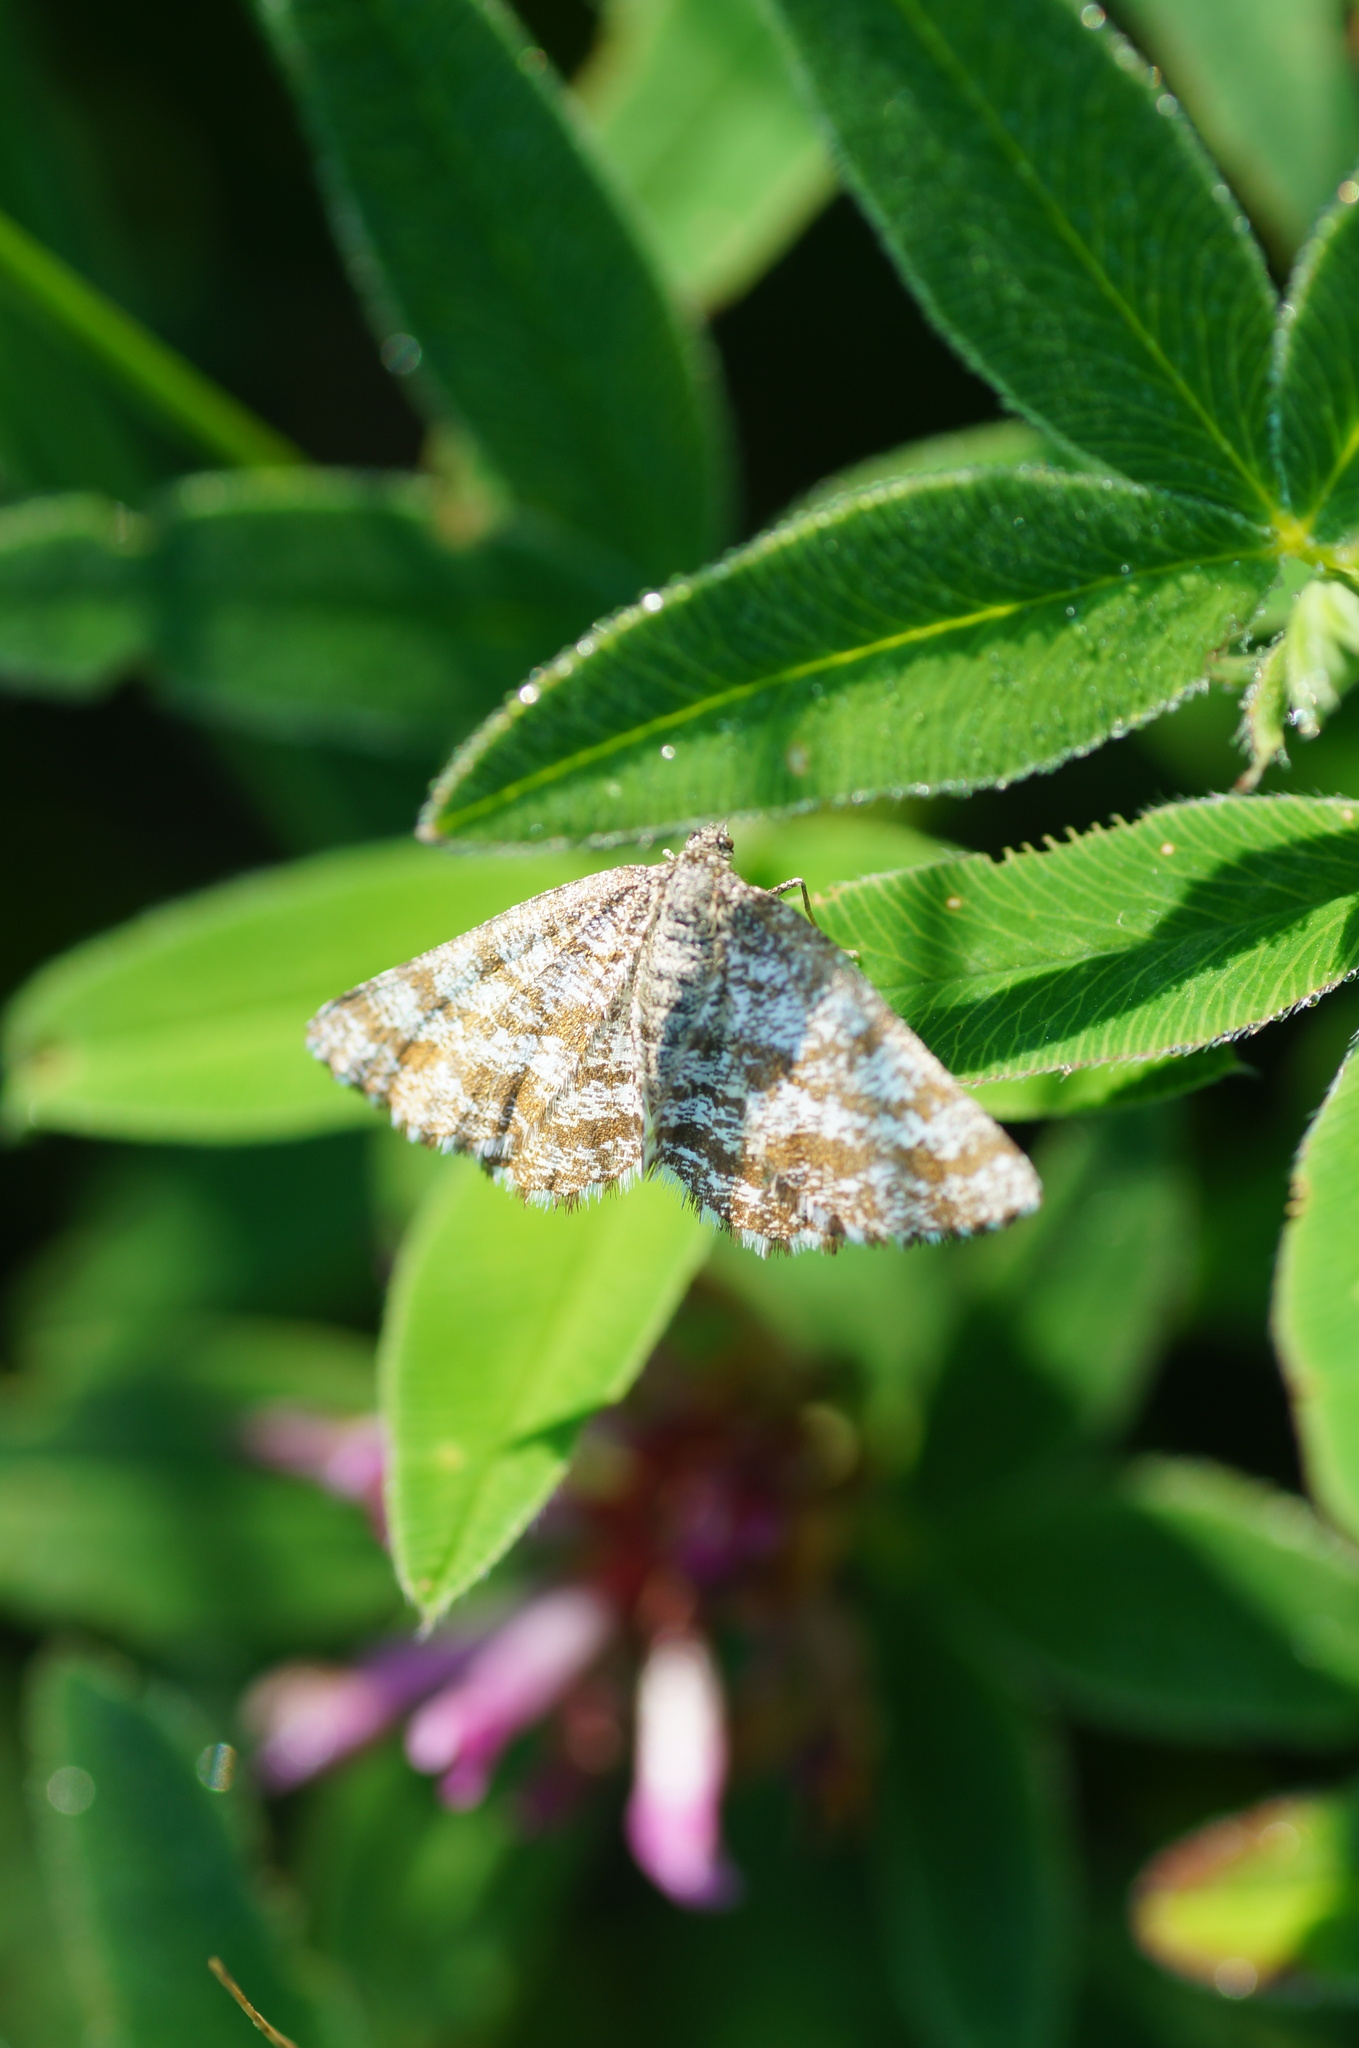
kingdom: Animalia
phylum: Arthropoda
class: Insecta
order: Lepidoptera
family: Geometridae
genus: Ematurga
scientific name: Ematurga atomaria
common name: Common heath
